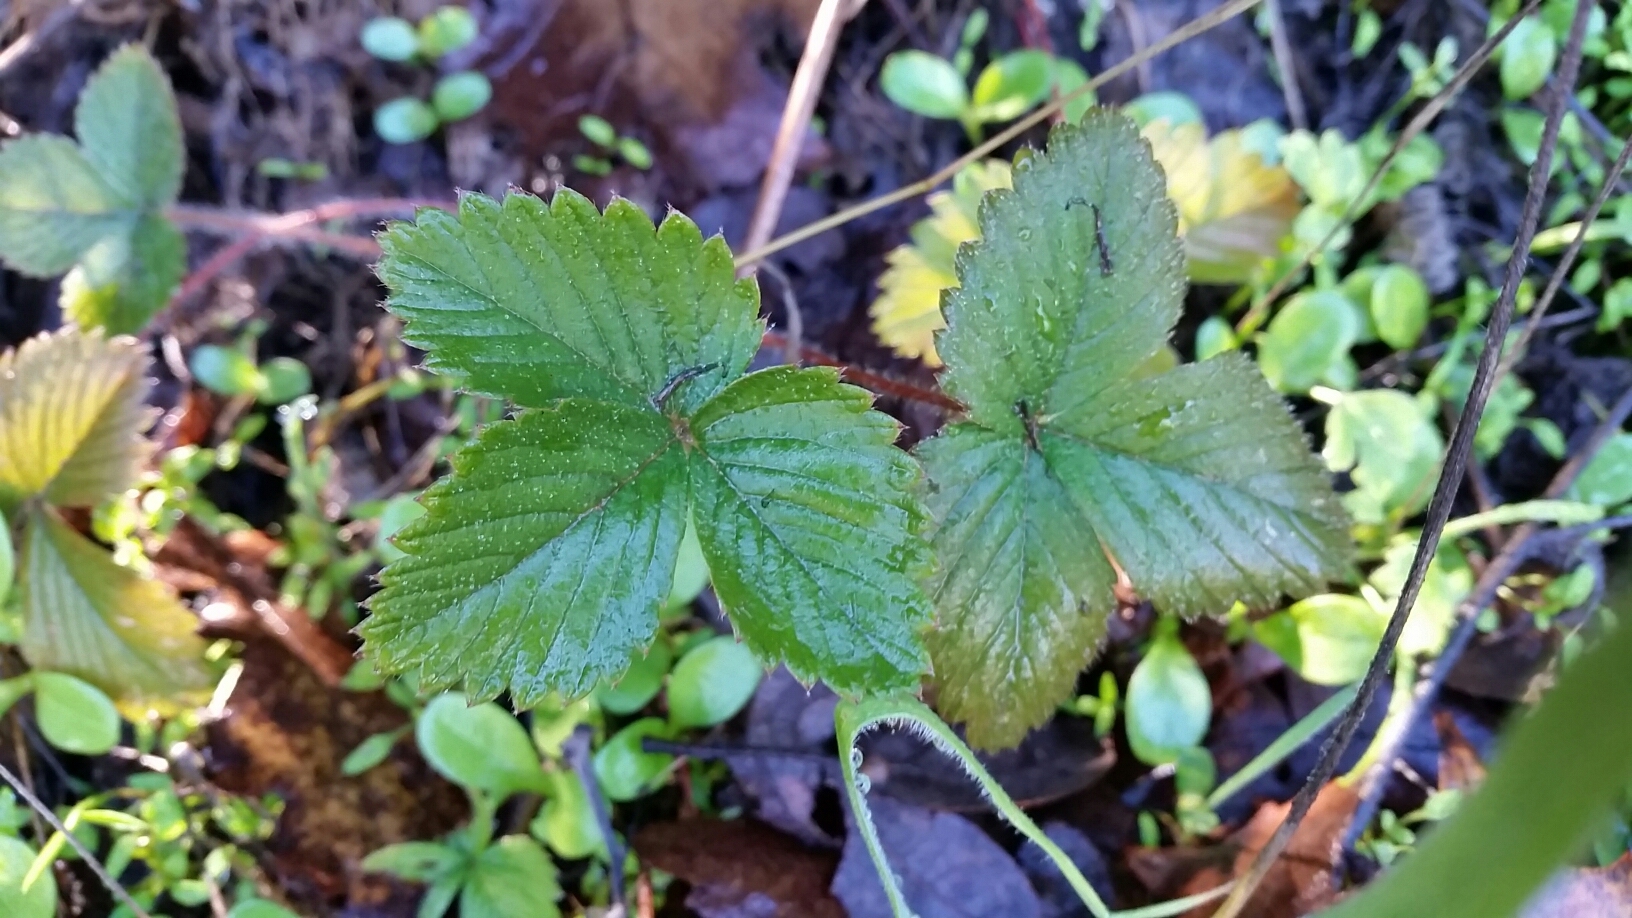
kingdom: Plantae
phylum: Tracheophyta
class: Magnoliopsida
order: Rosales
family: Rosaceae
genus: Fragaria
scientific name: Fragaria vesca
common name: Wild strawberry
